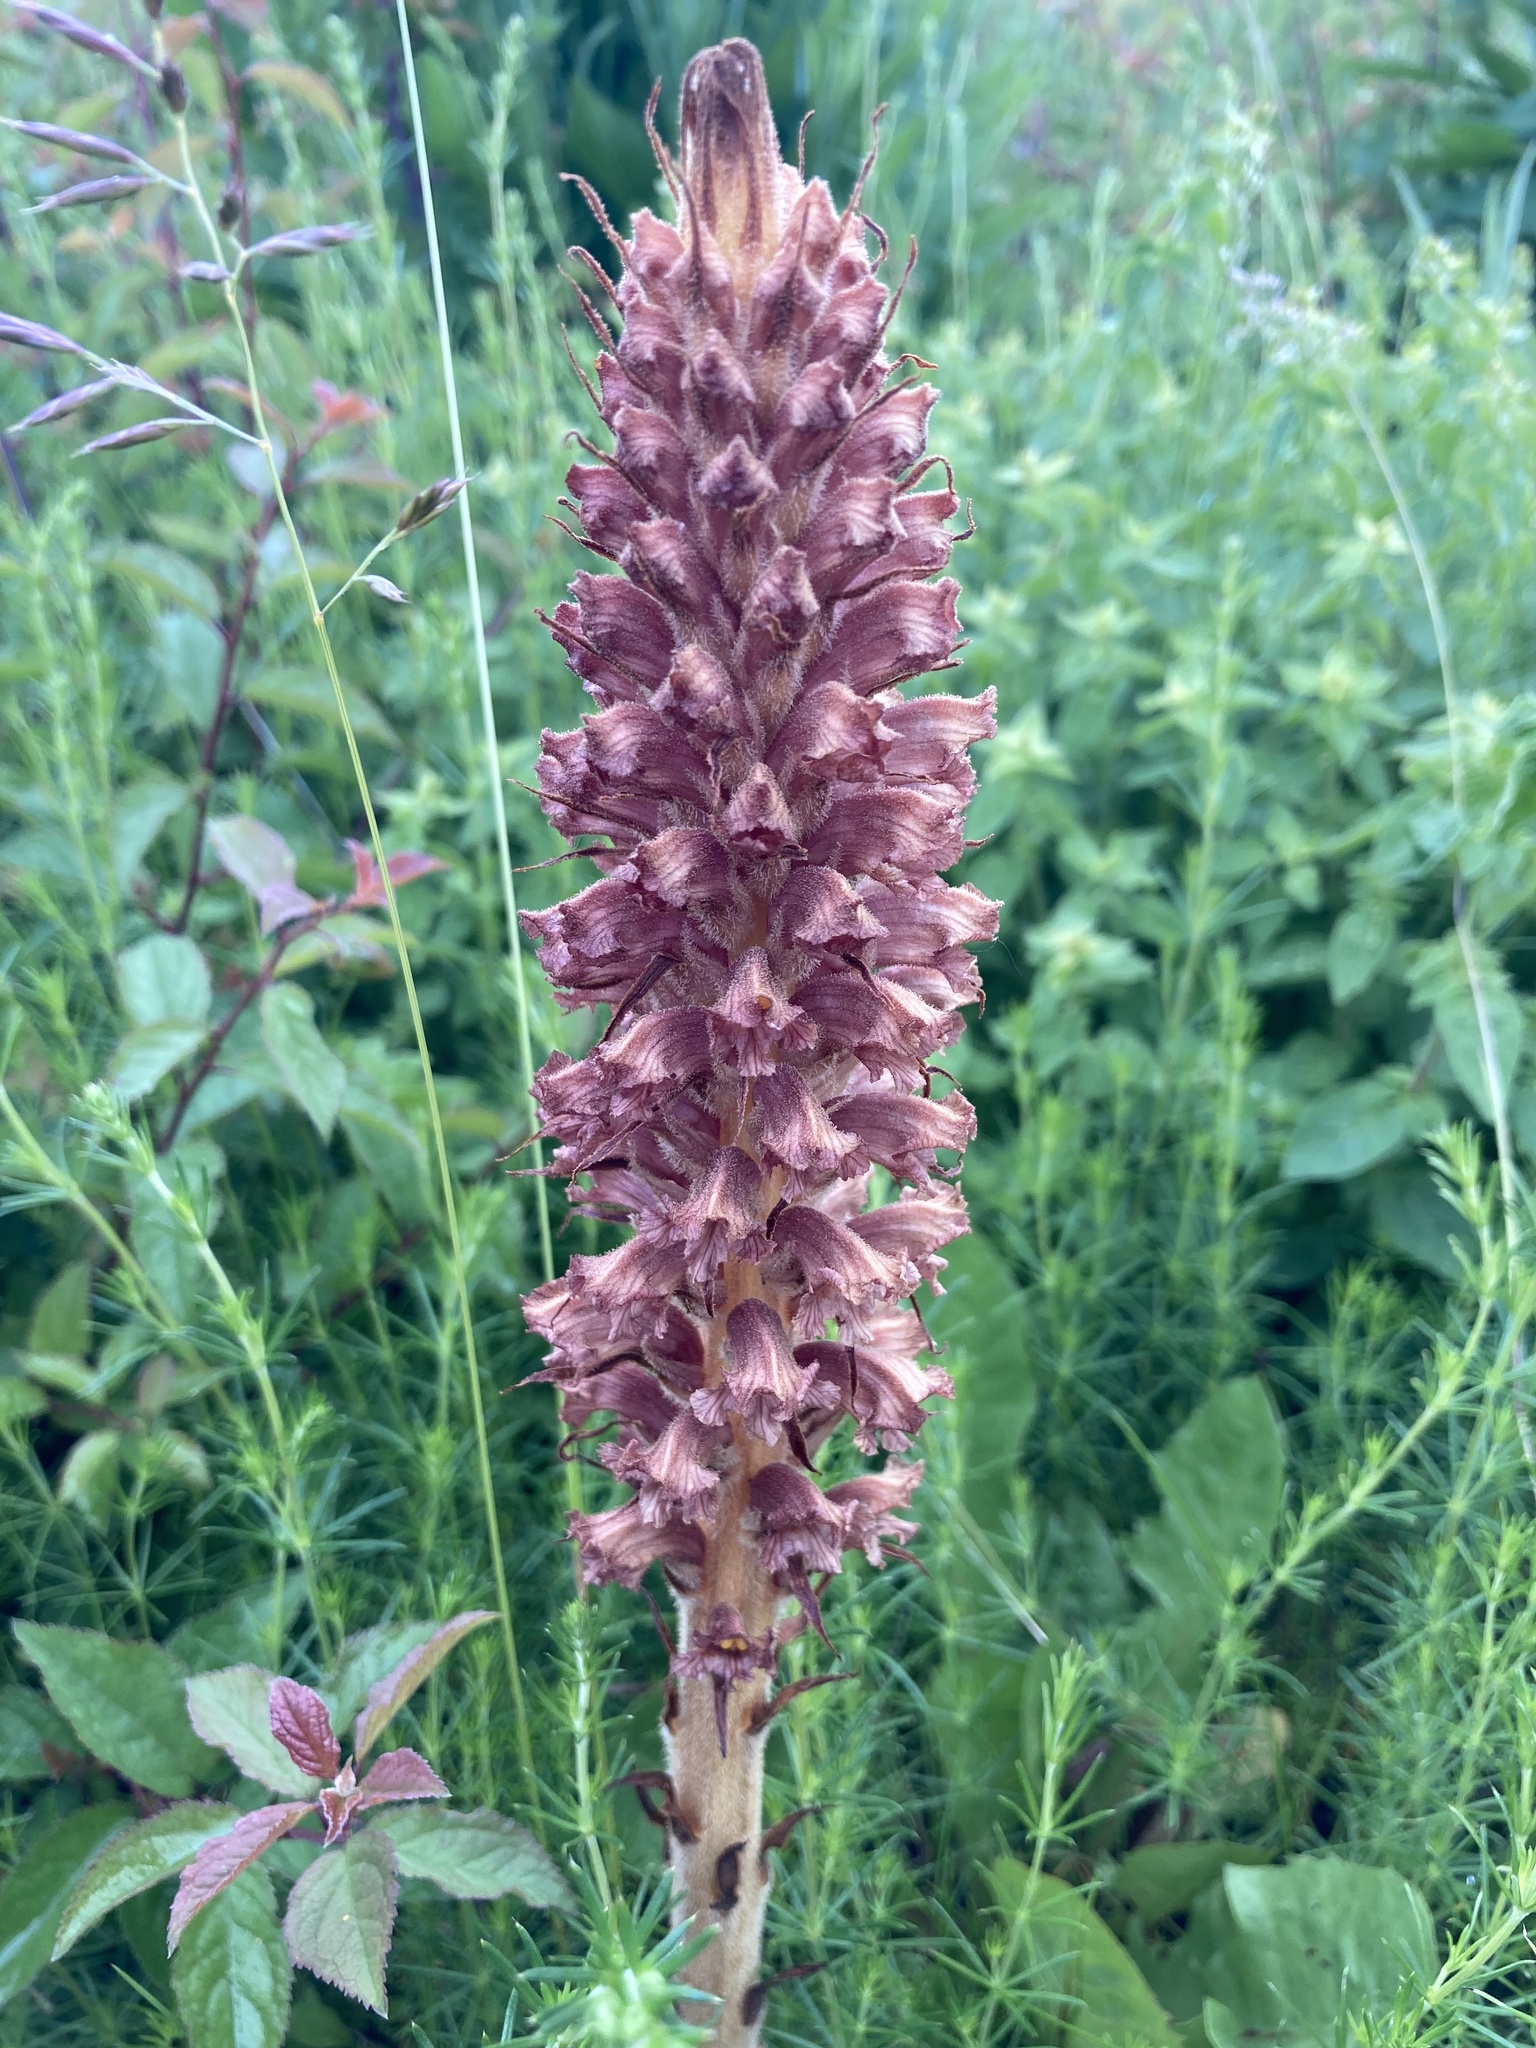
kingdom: Plantae
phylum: Tracheophyta
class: Magnoliopsida
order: Lamiales
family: Orobanchaceae
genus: Orobanche
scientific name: Orobanche elatior
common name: Knapweed broomrape
